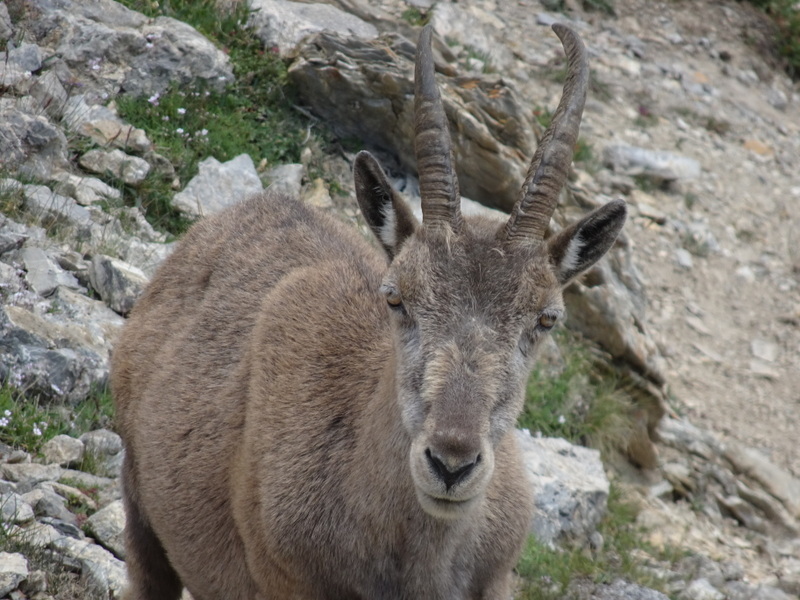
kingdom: Animalia
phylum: Chordata
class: Mammalia
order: Artiodactyla
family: Bovidae
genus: Capra
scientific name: Capra ibex
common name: Alpine ibex
